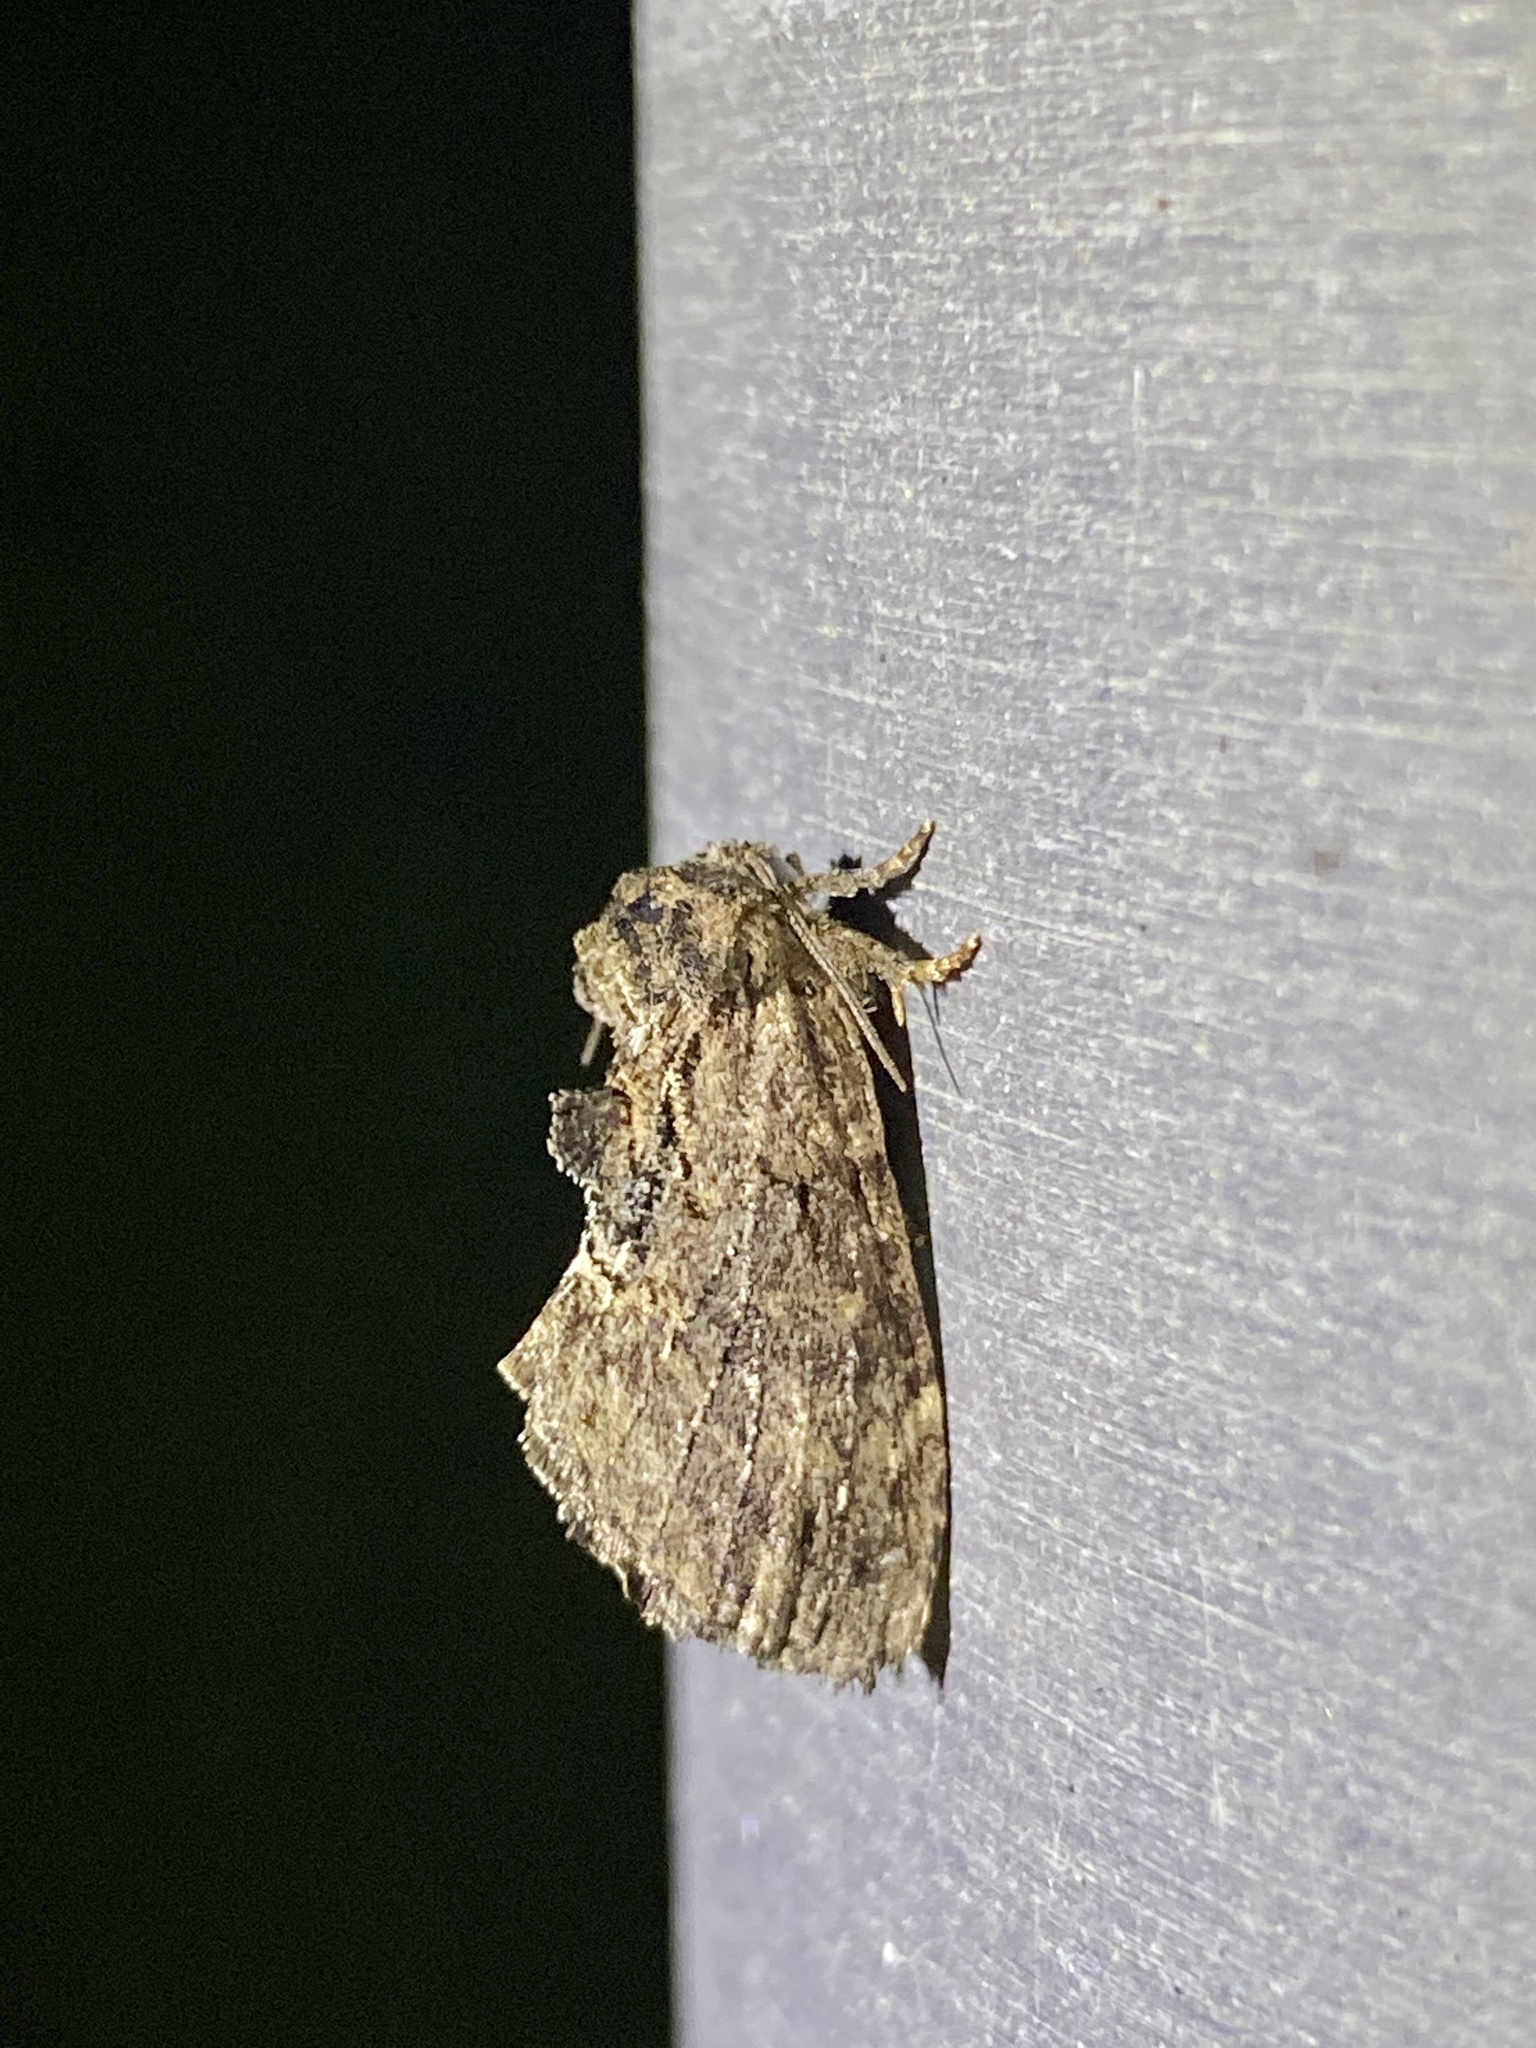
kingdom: Animalia
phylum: Arthropoda
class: Insecta
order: Lepidoptera
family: Notodontidae
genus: Lophontosia
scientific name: Lophontosia
